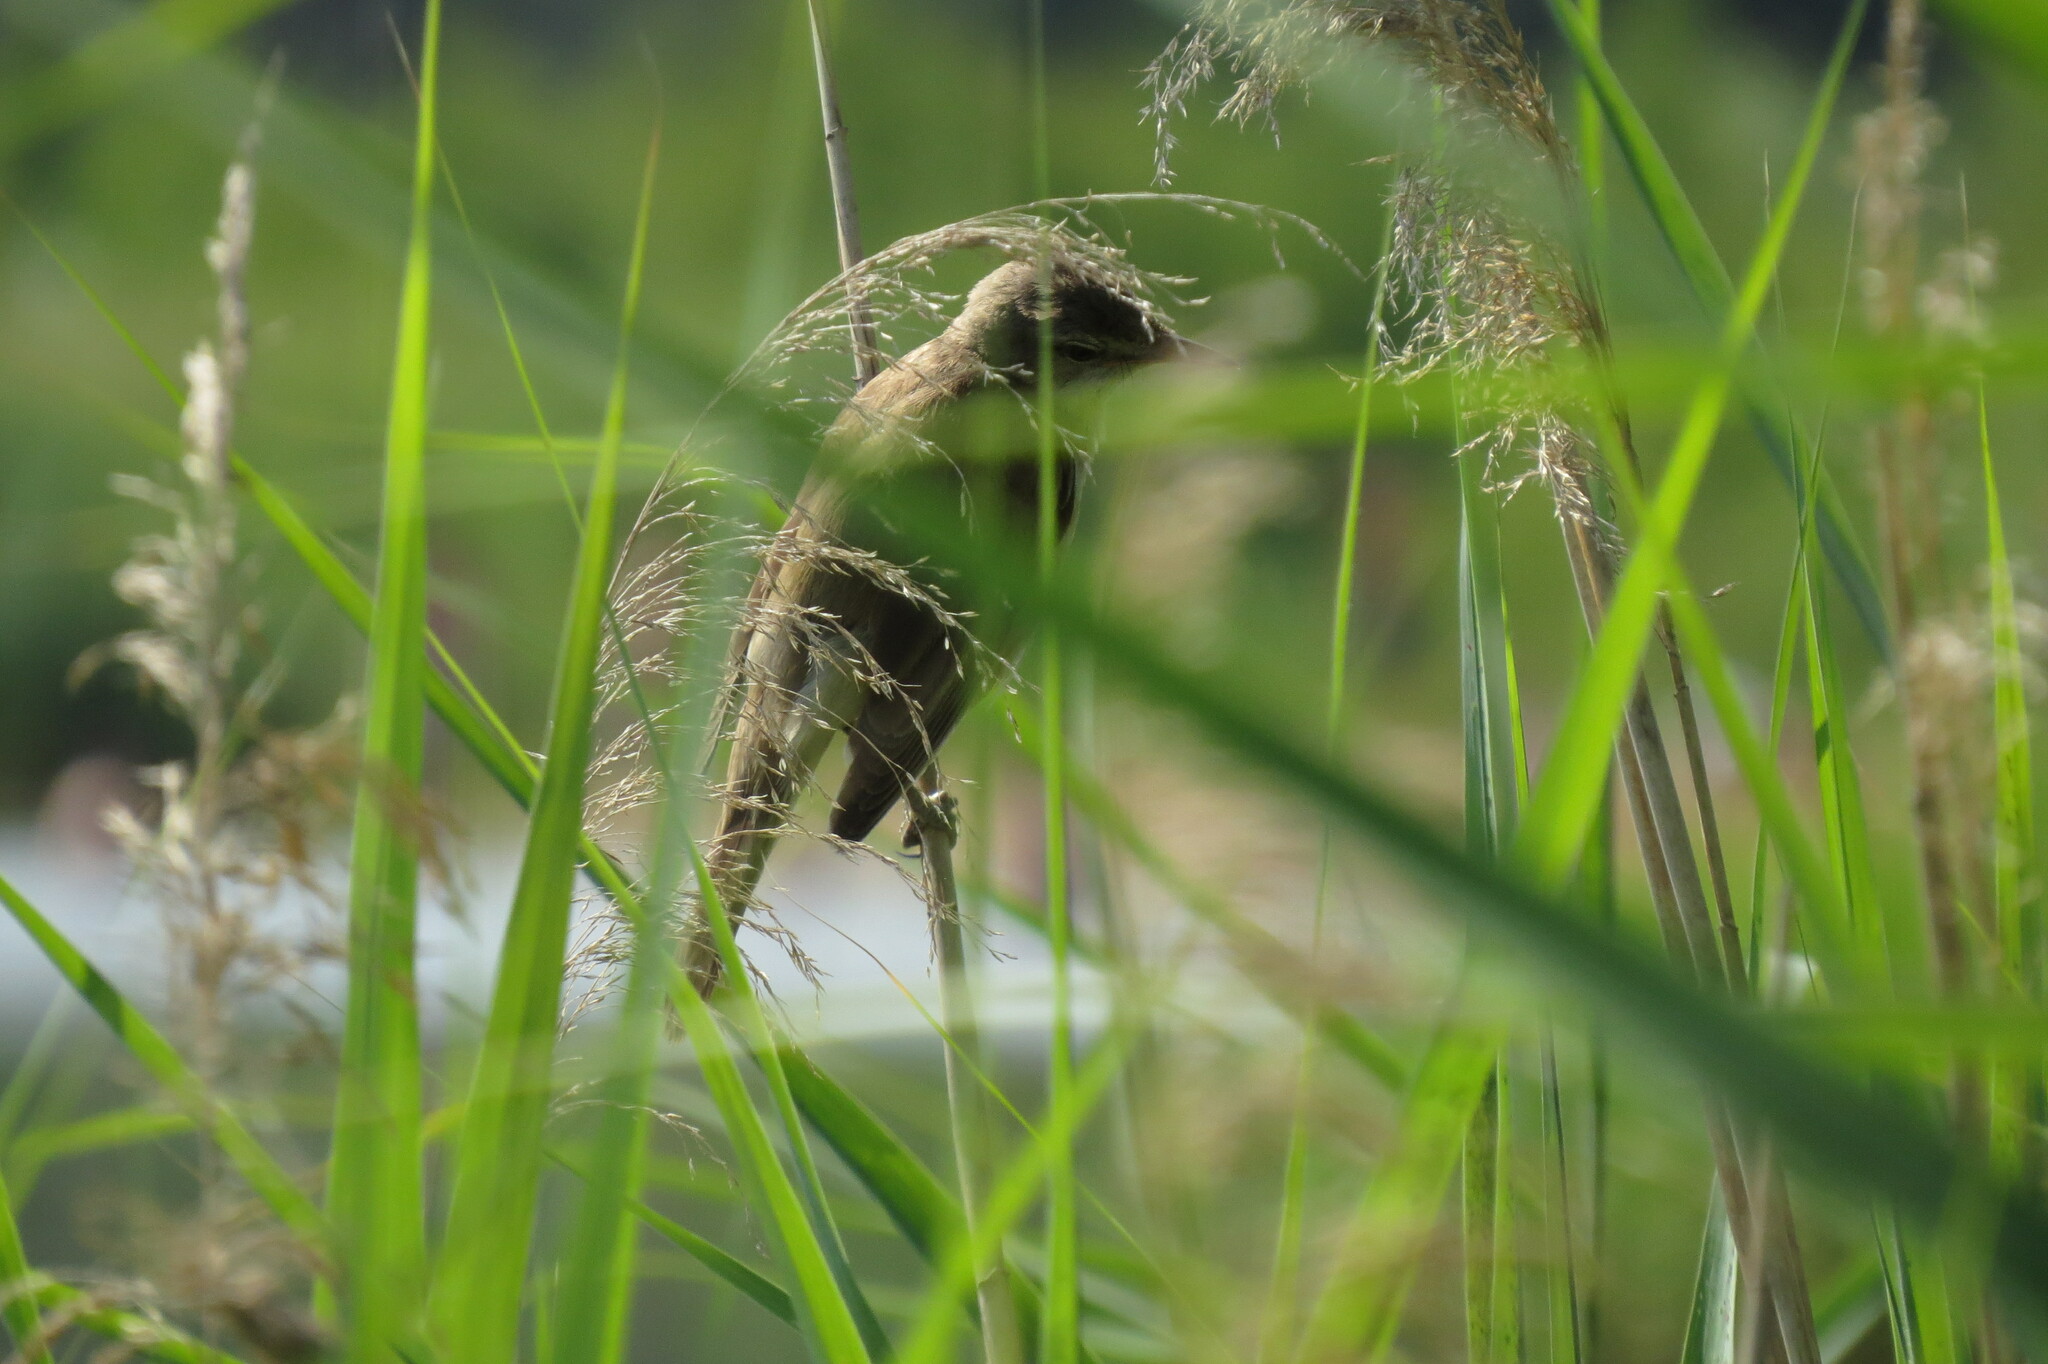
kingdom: Animalia
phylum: Chordata
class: Aves
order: Passeriformes
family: Acrocephalidae
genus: Acrocephalus
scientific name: Acrocephalus arundinaceus
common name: Great reed warbler
